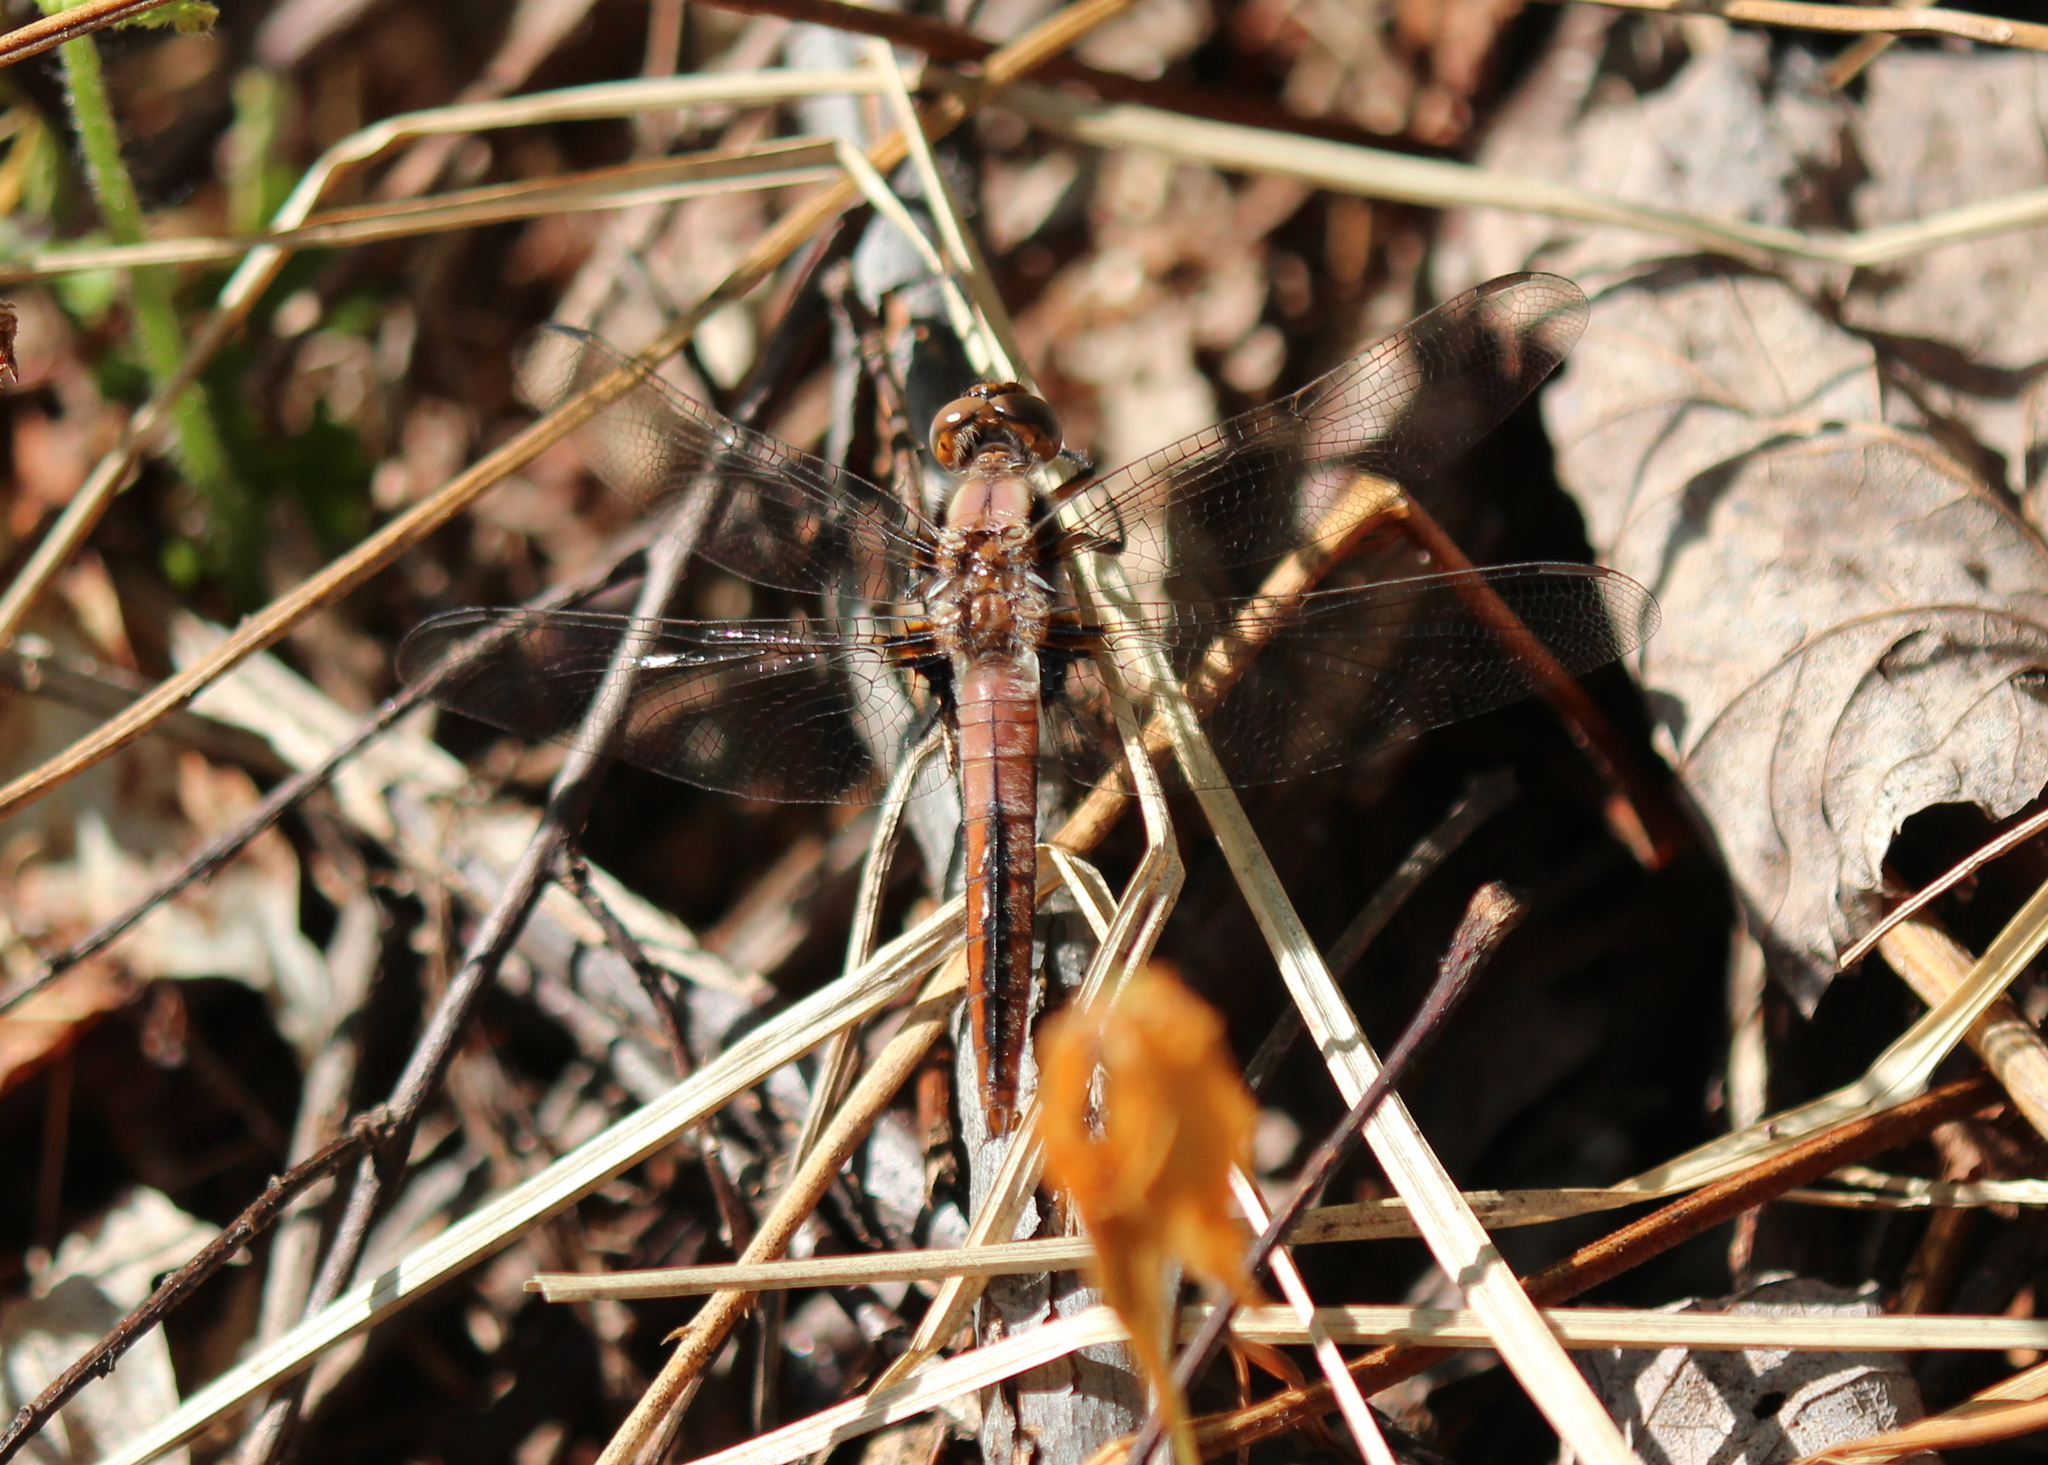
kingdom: Animalia
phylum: Arthropoda
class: Insecta
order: Odonata
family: Libellulidae
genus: Ladona
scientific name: Ladona julia
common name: Chalk-fronted corporal
